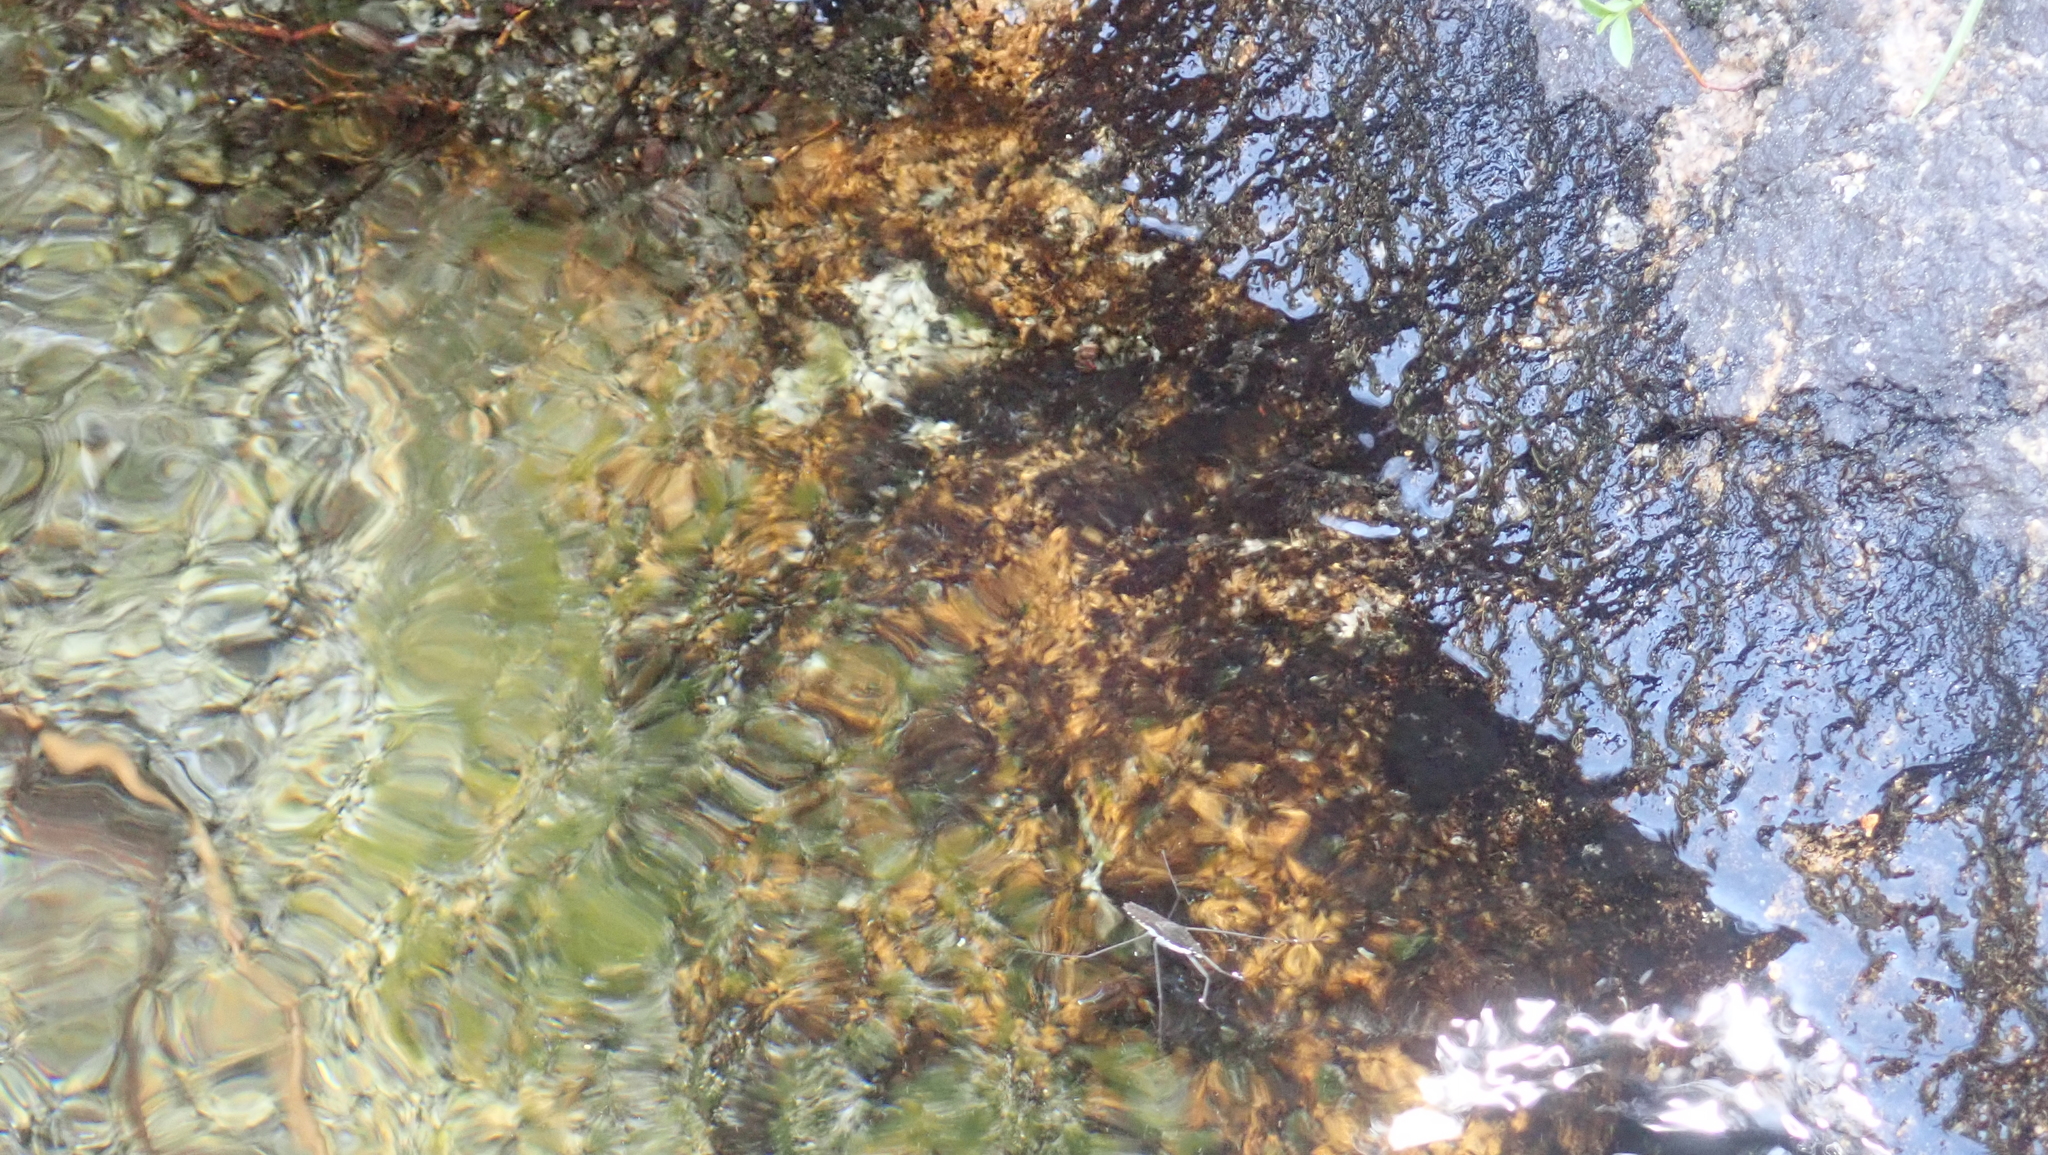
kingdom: Animalia
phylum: Arthropoda
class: Insecta
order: Hemiptera
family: Gerridae
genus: Aquarius
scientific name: Aquarius remigis
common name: Common water strider
